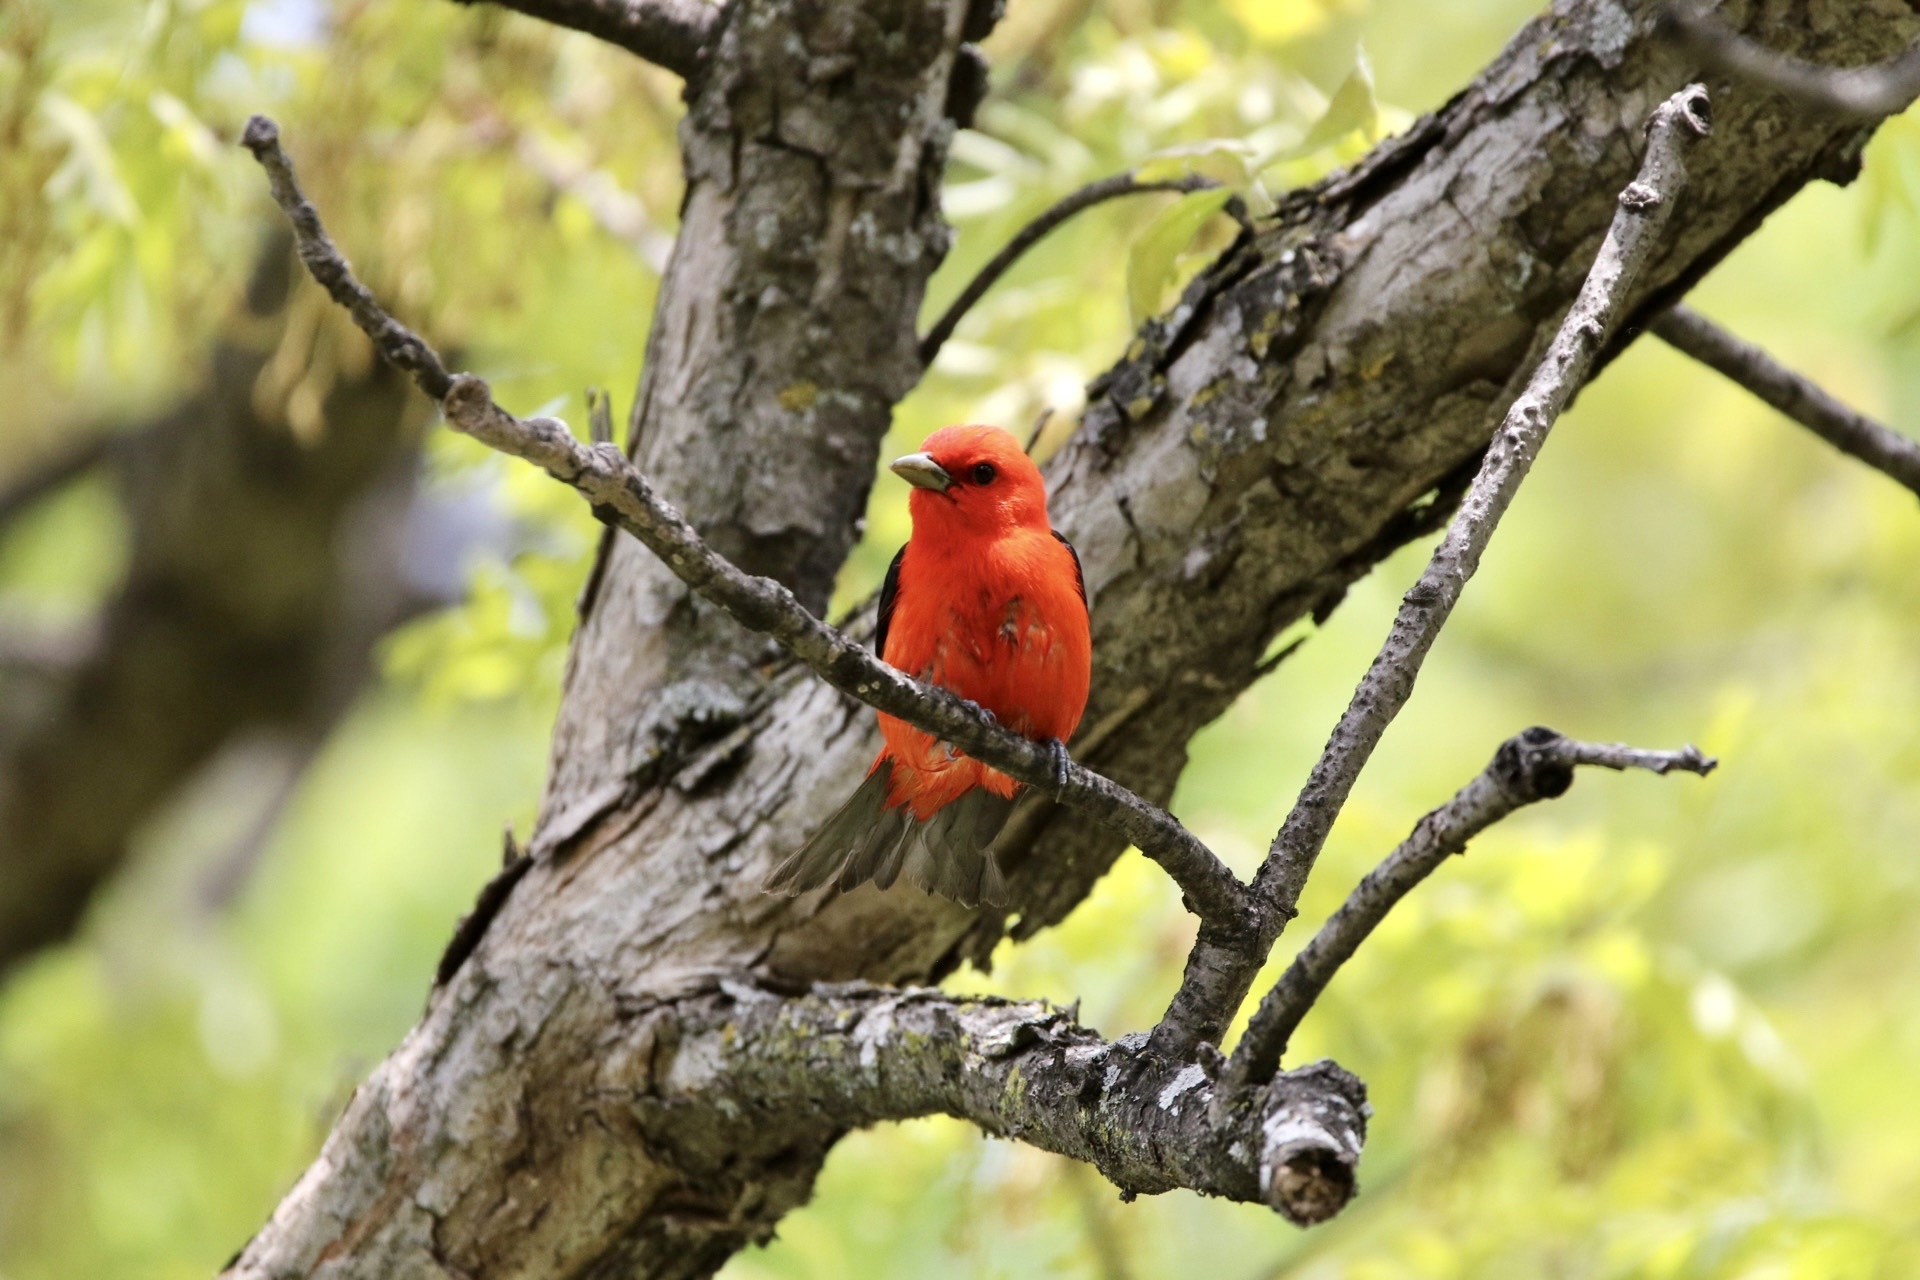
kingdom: Animalia
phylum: Chordata
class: Aves
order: Passeriformes
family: Cardinalidae
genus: Piranga
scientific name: Piranga olivacea
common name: Scarlet tanager
